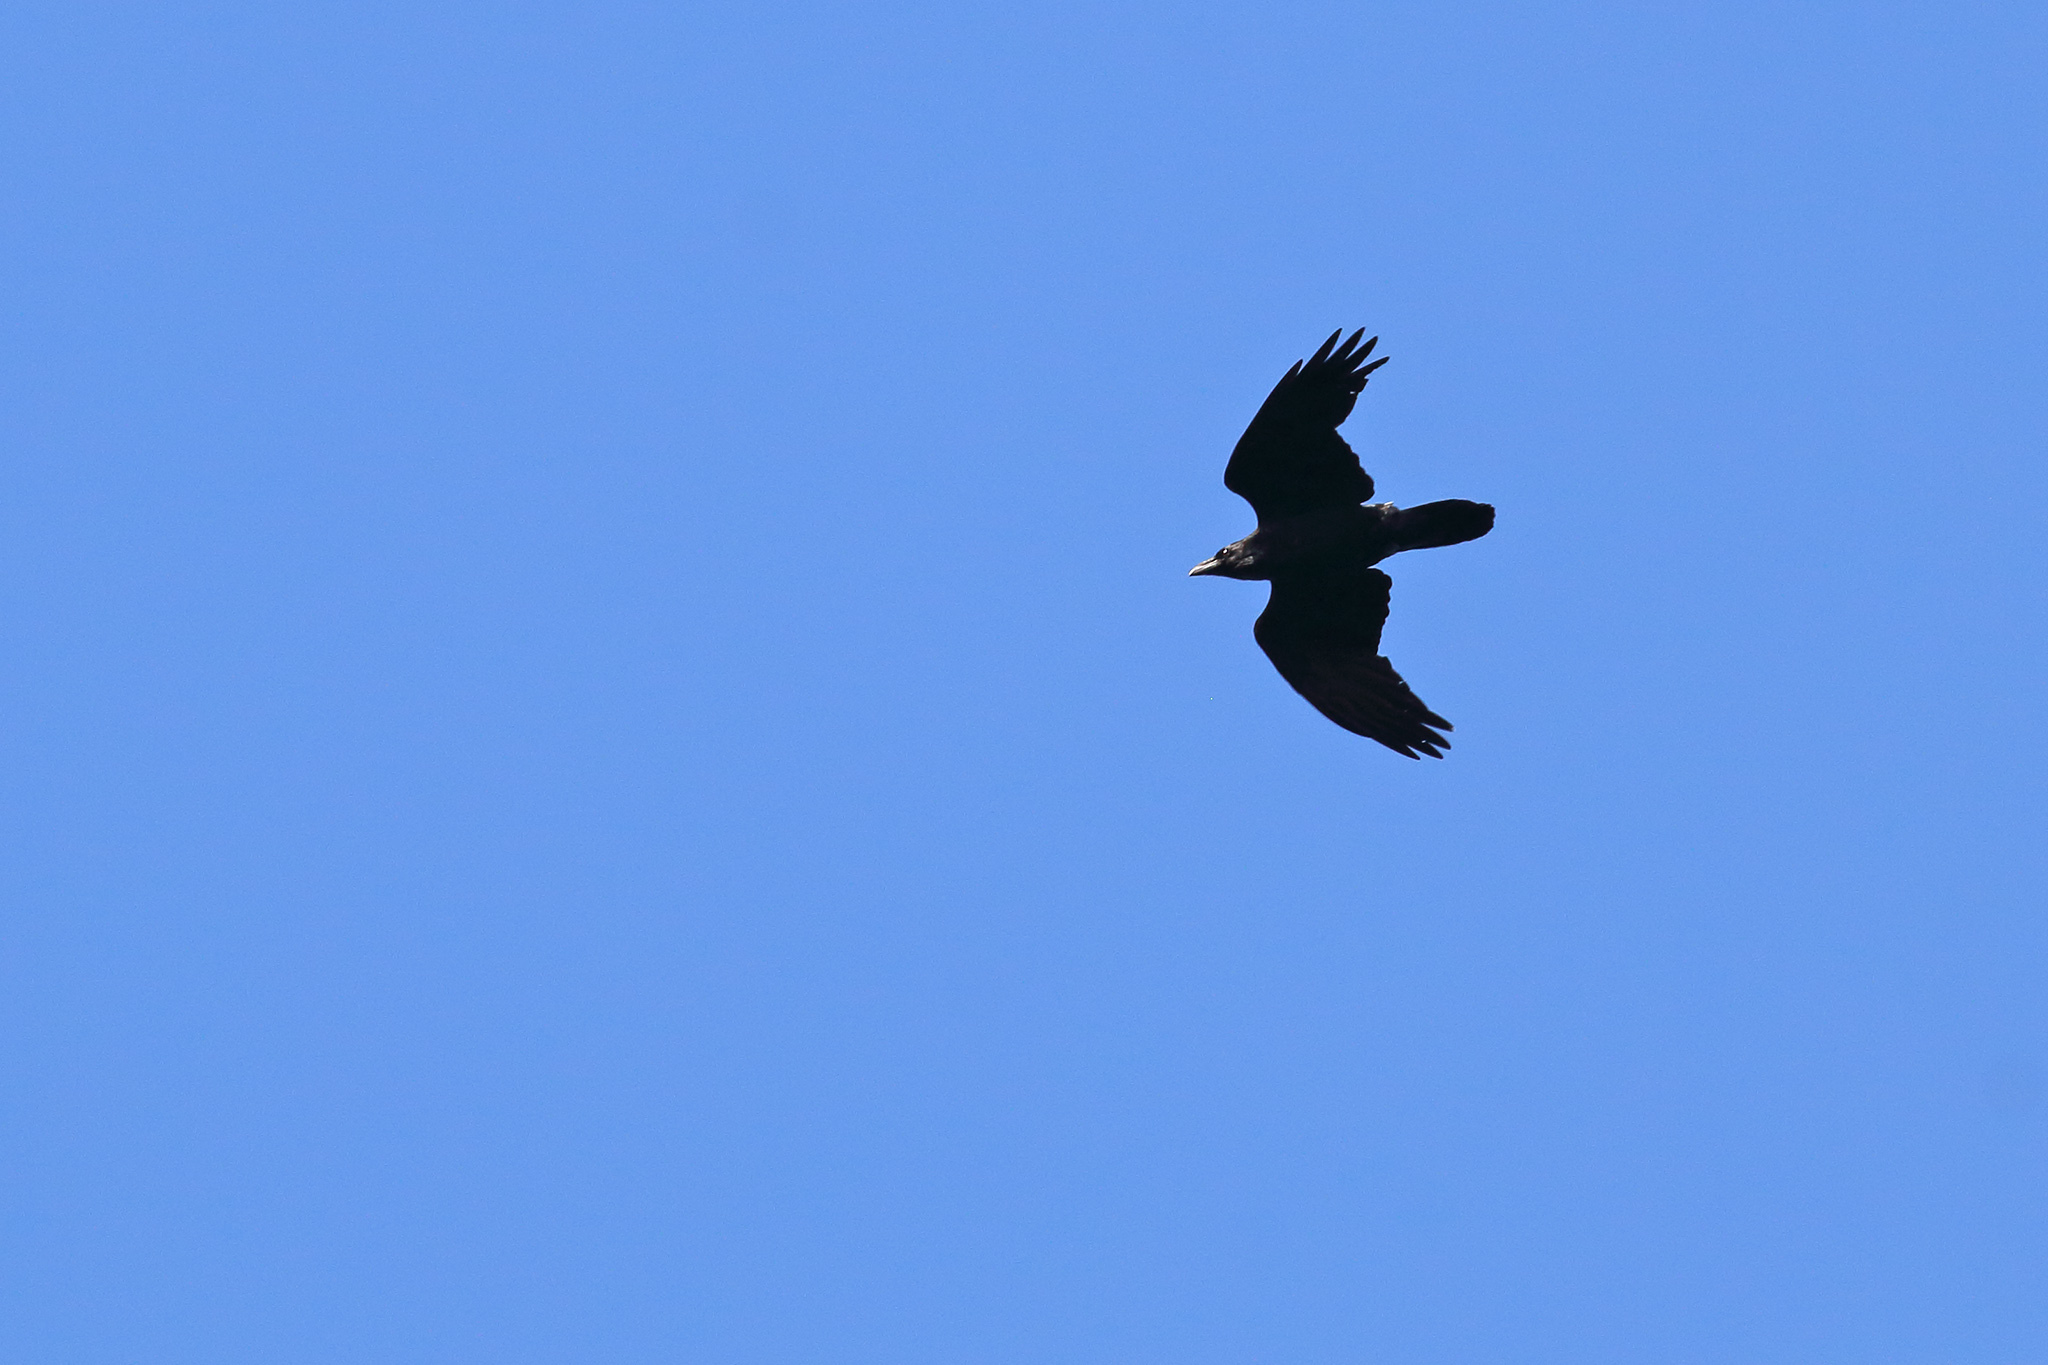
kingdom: Animalia
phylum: Chordata
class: Aves
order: Passeriformes
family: Corvidae
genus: Corvus
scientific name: Corvus corax
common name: Common raven
